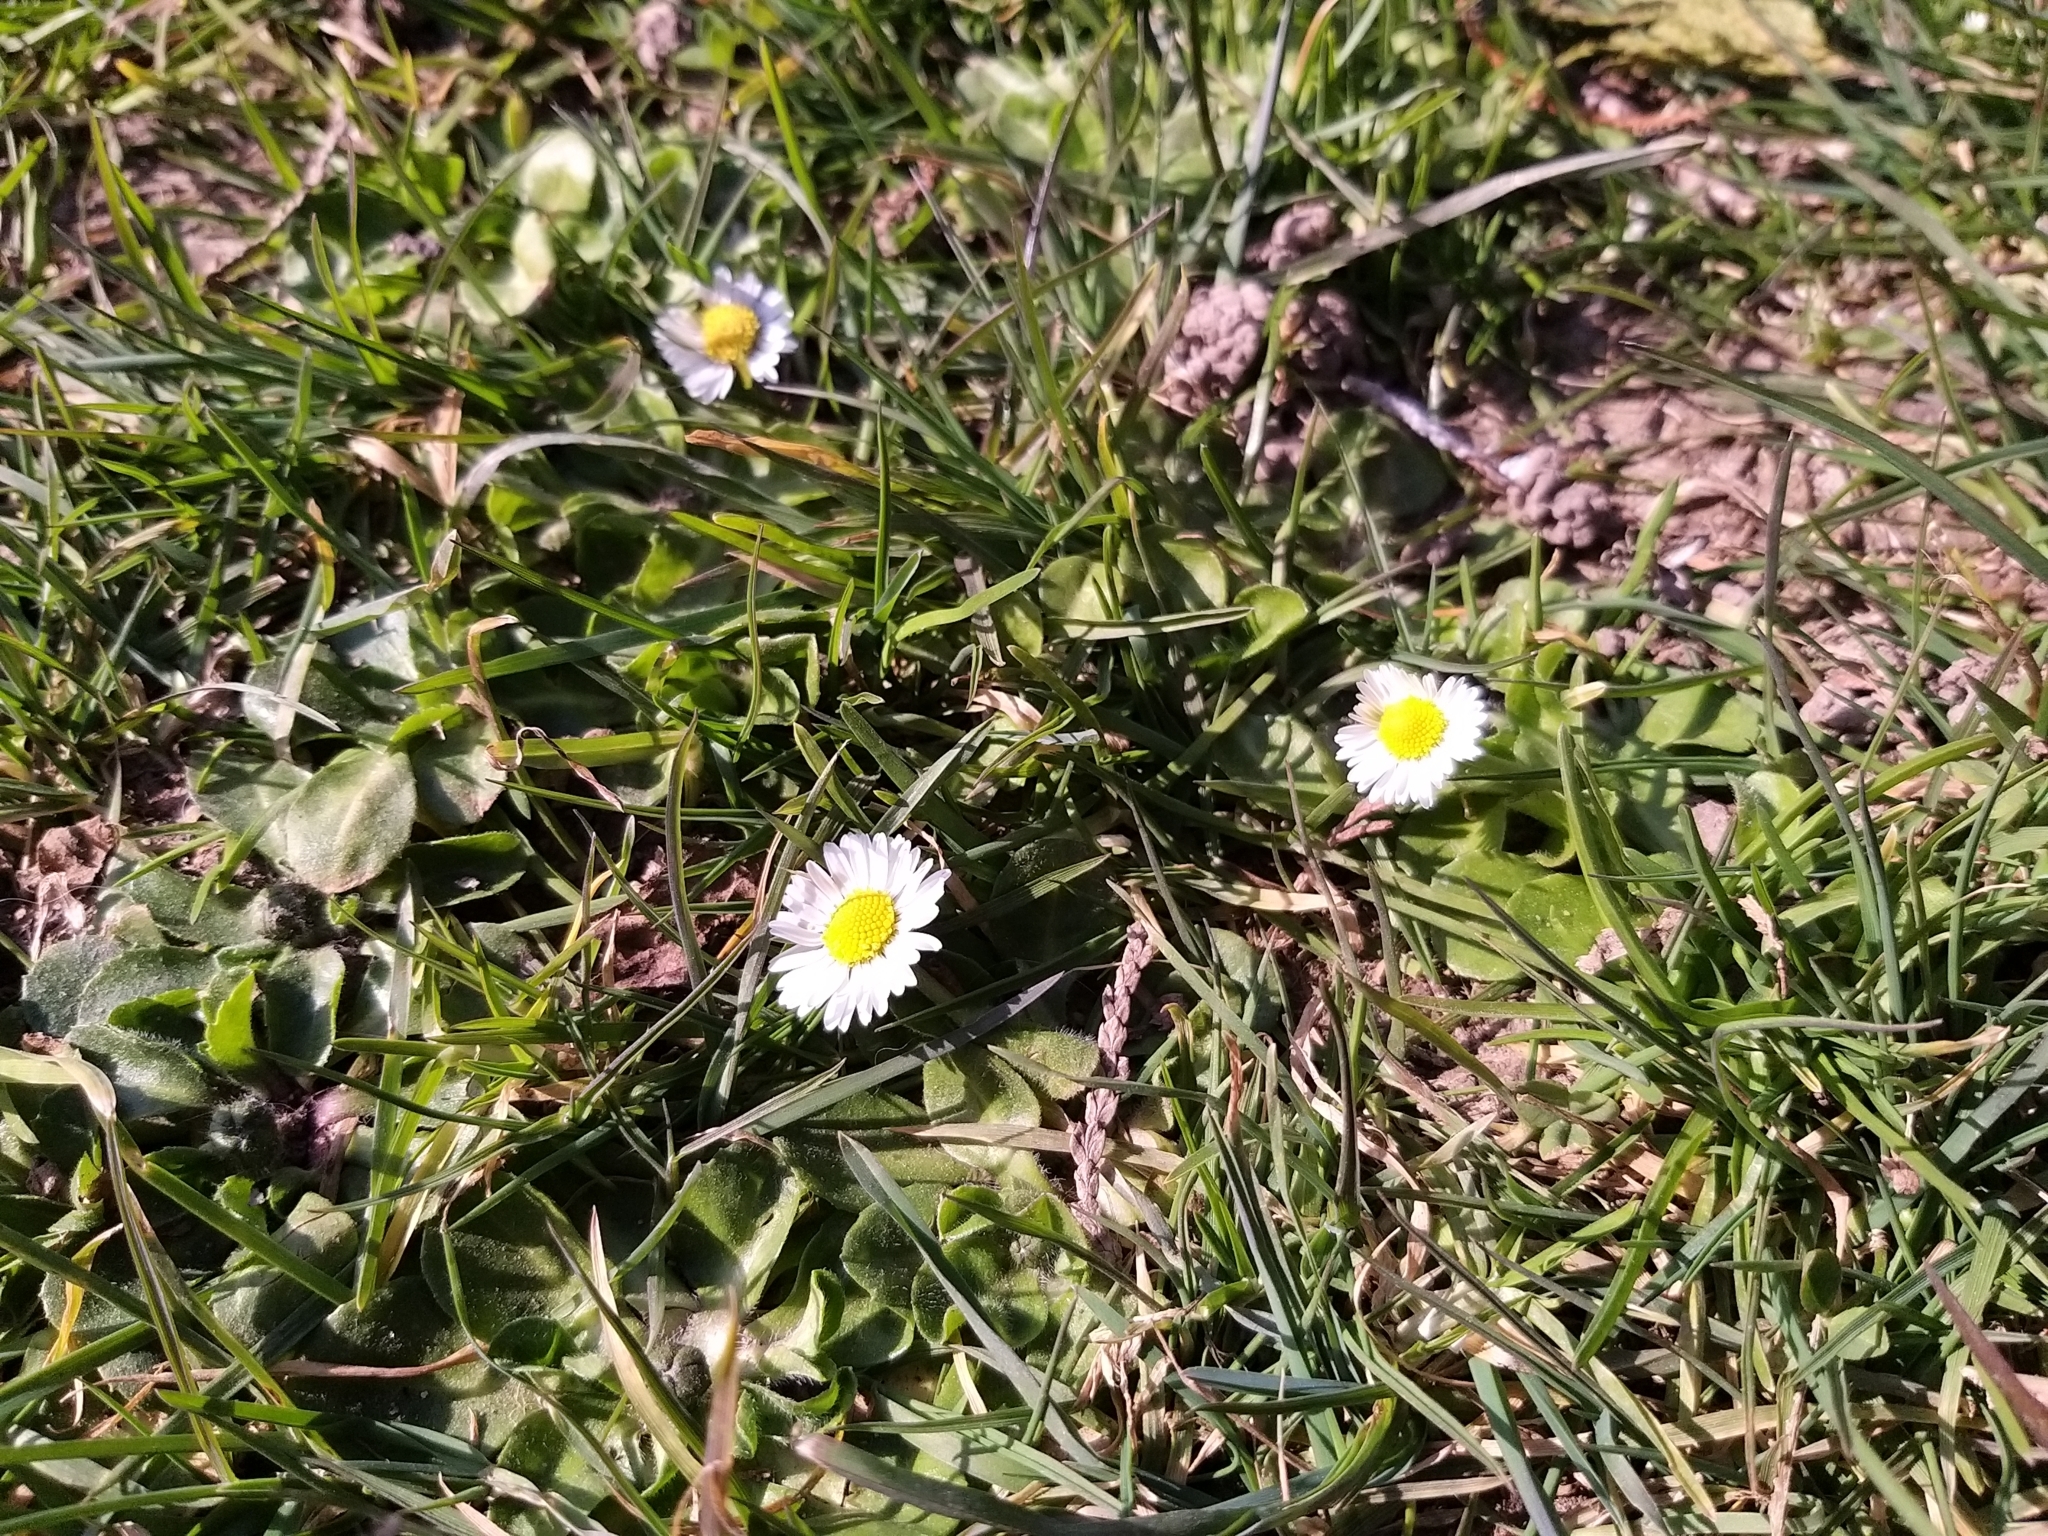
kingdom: Plantae
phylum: Tracheophyta
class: Magnoliopsida
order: Asterales
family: Asteraceae
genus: Bellis
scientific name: Bellis perennis
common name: Lawndaisy
